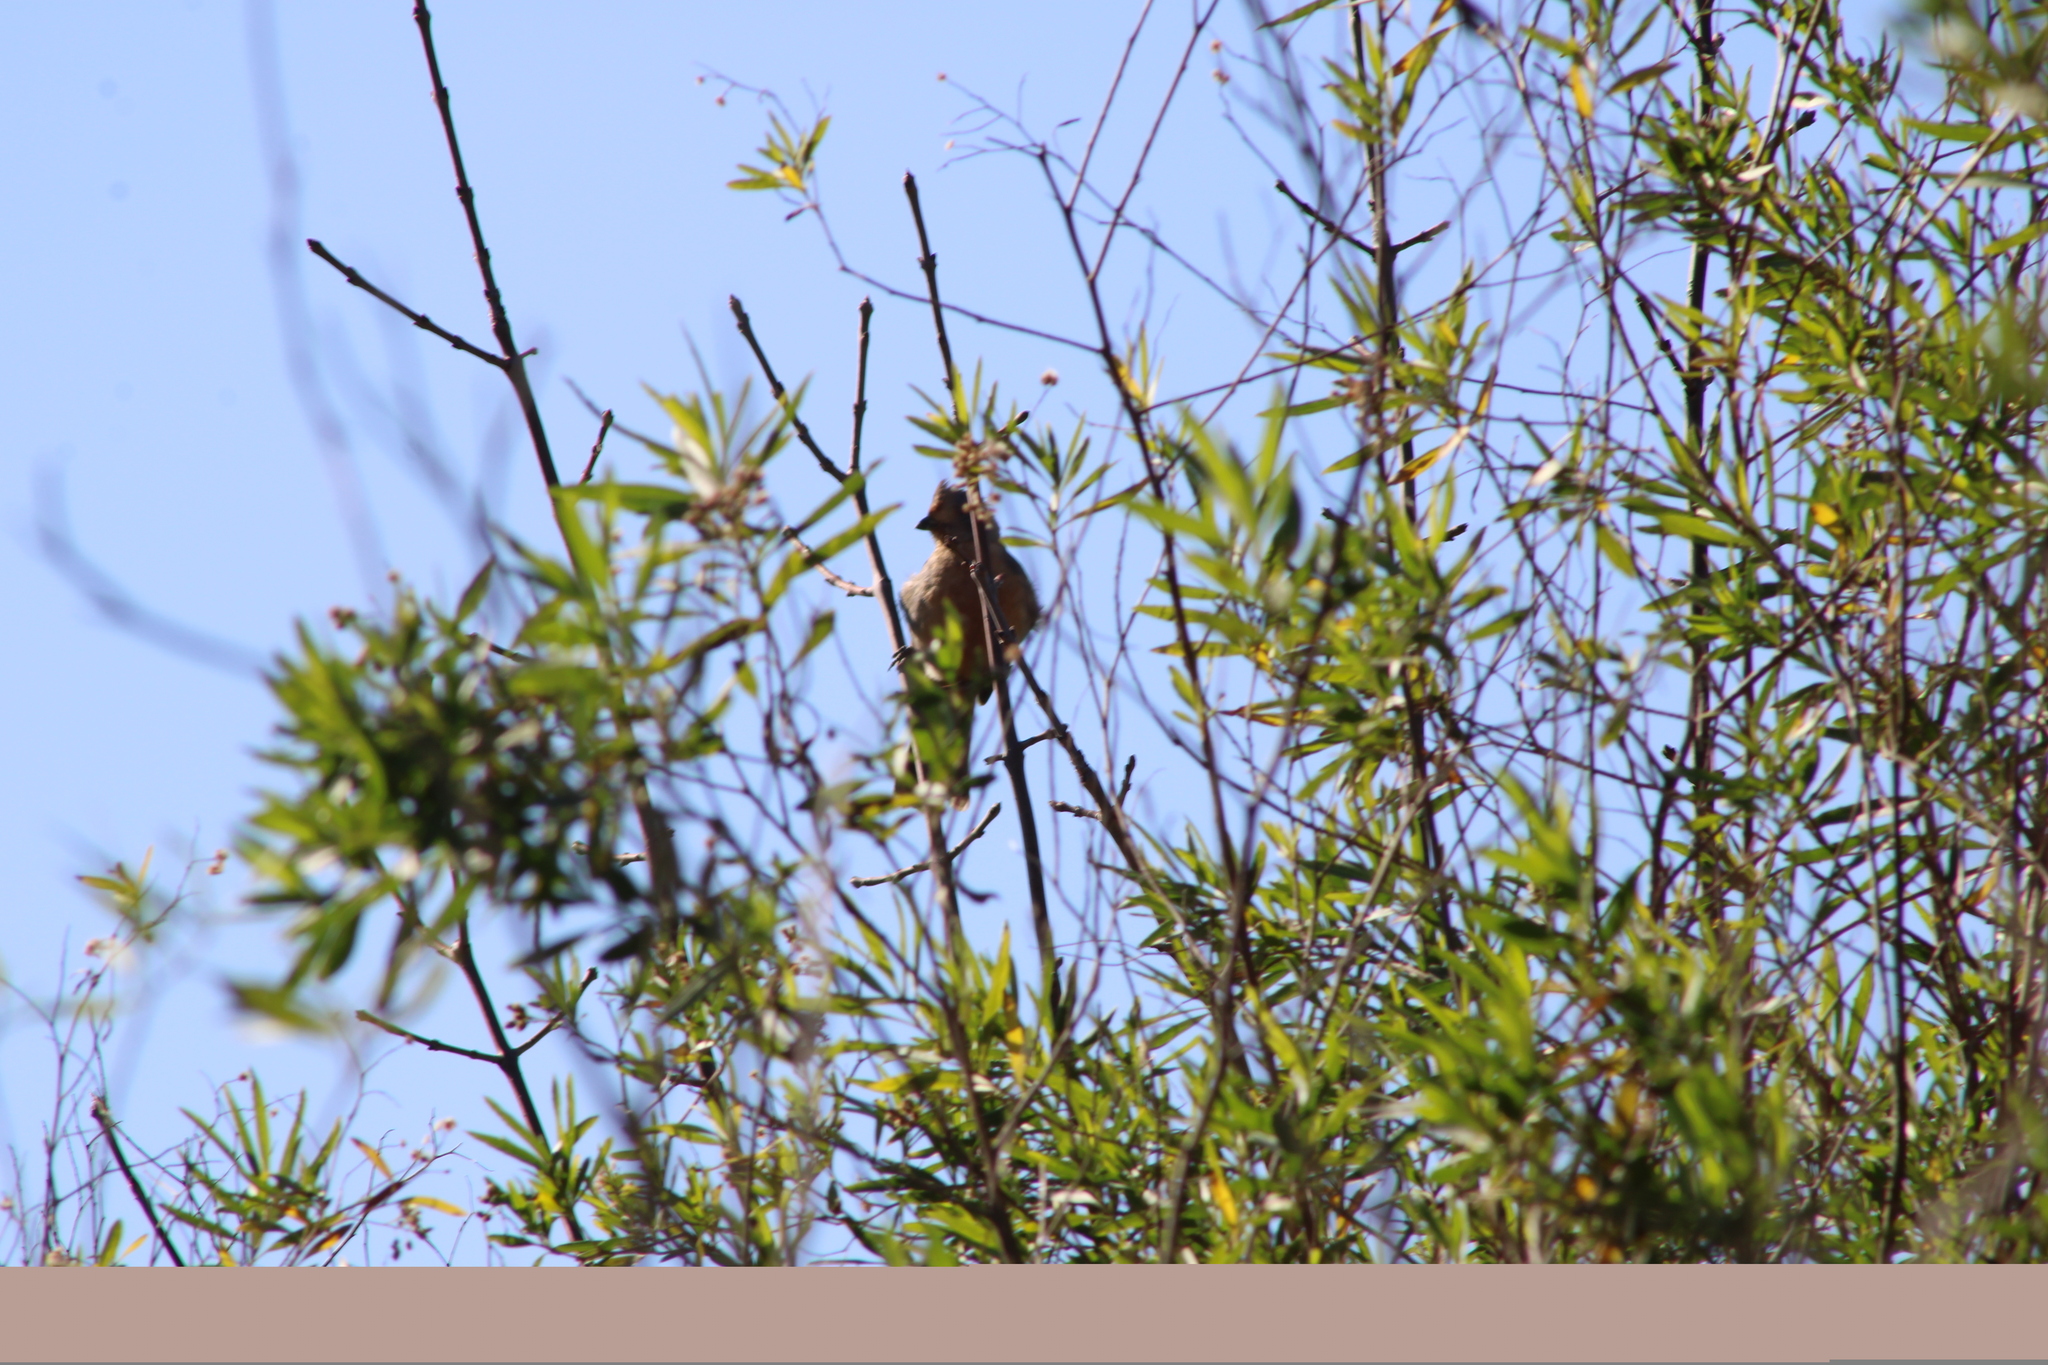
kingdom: Animalia
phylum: Chordata
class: Aves
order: Passeriformes
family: Cotingidae
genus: Phytotoma
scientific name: Phytotoma rutila
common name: White-tipped plantcutter
